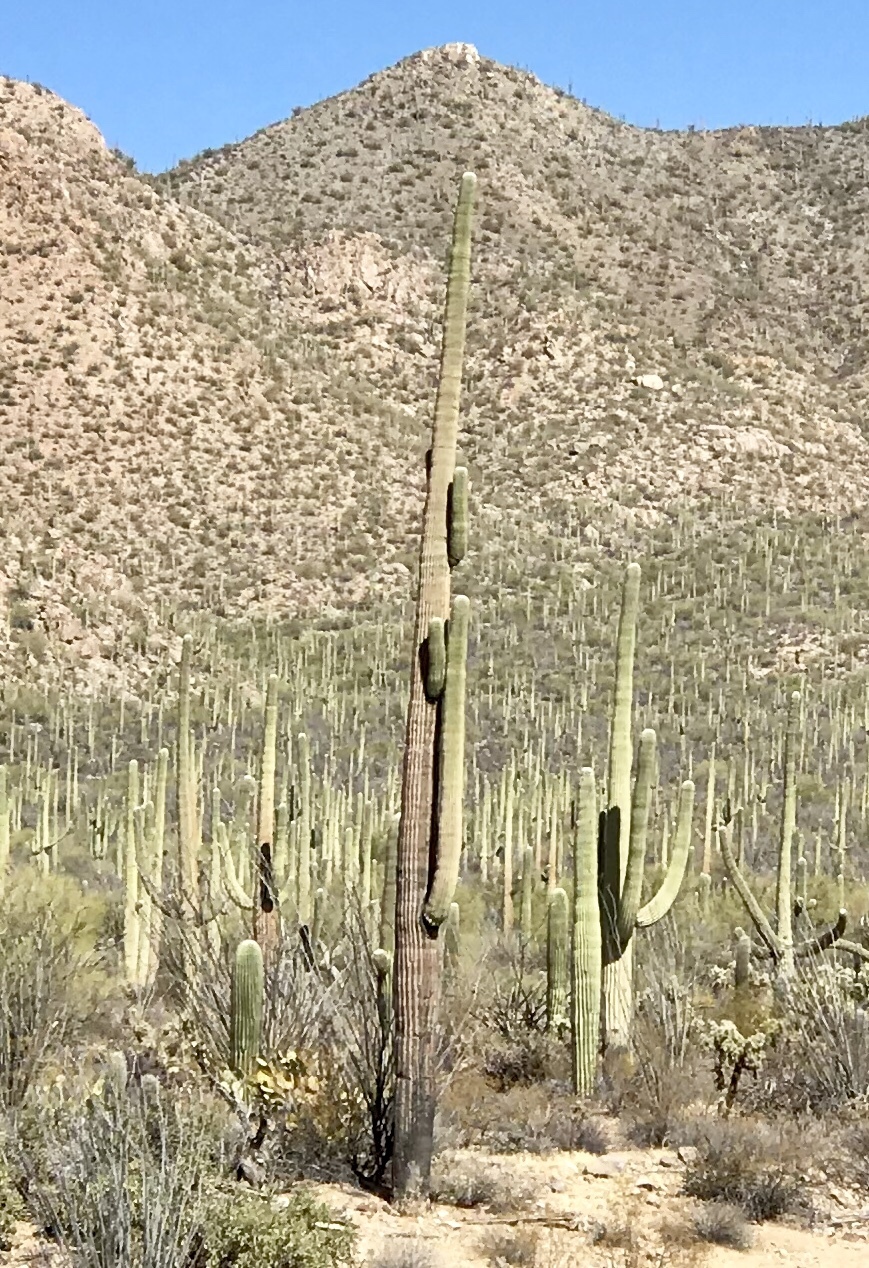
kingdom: Plantae
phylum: Tracheophyta
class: Magnoliopsida
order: Caryophyllales
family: Cactaceae
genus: Carnegiea
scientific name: Carnegiea gigantea
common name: Saguaro
